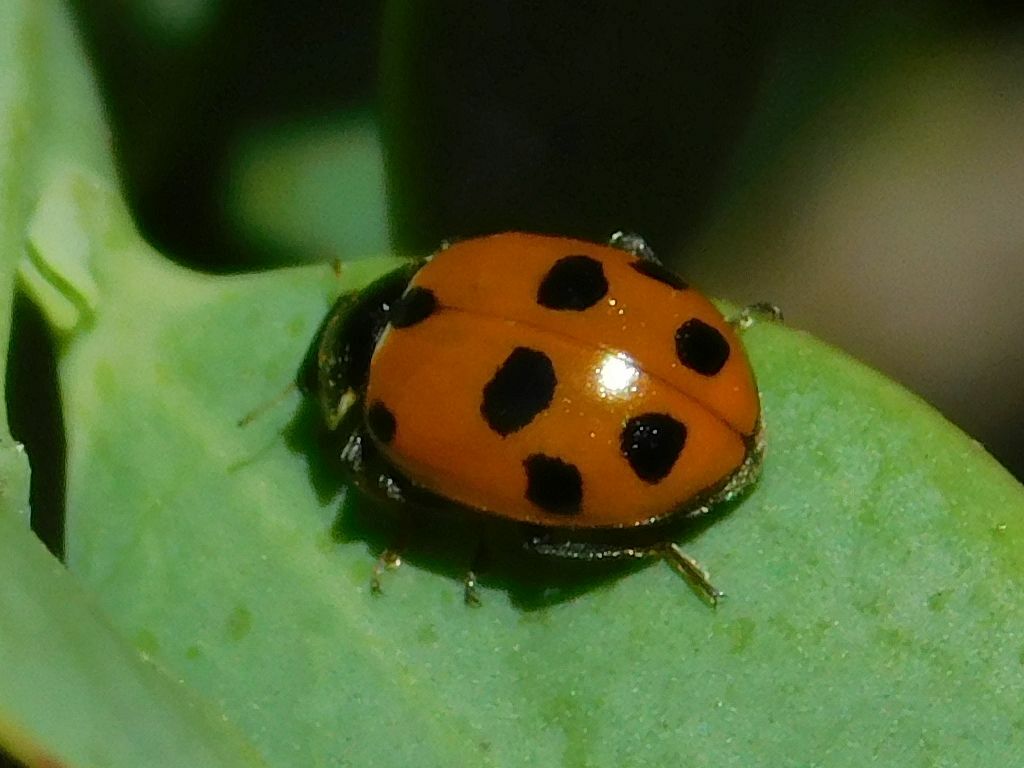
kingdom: Animalia
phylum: Arthropoda
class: Insecta
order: Coleoptera
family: Coccinellidae
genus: Hippodamia
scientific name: Hippodamia variegata
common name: Ladybird beetle
